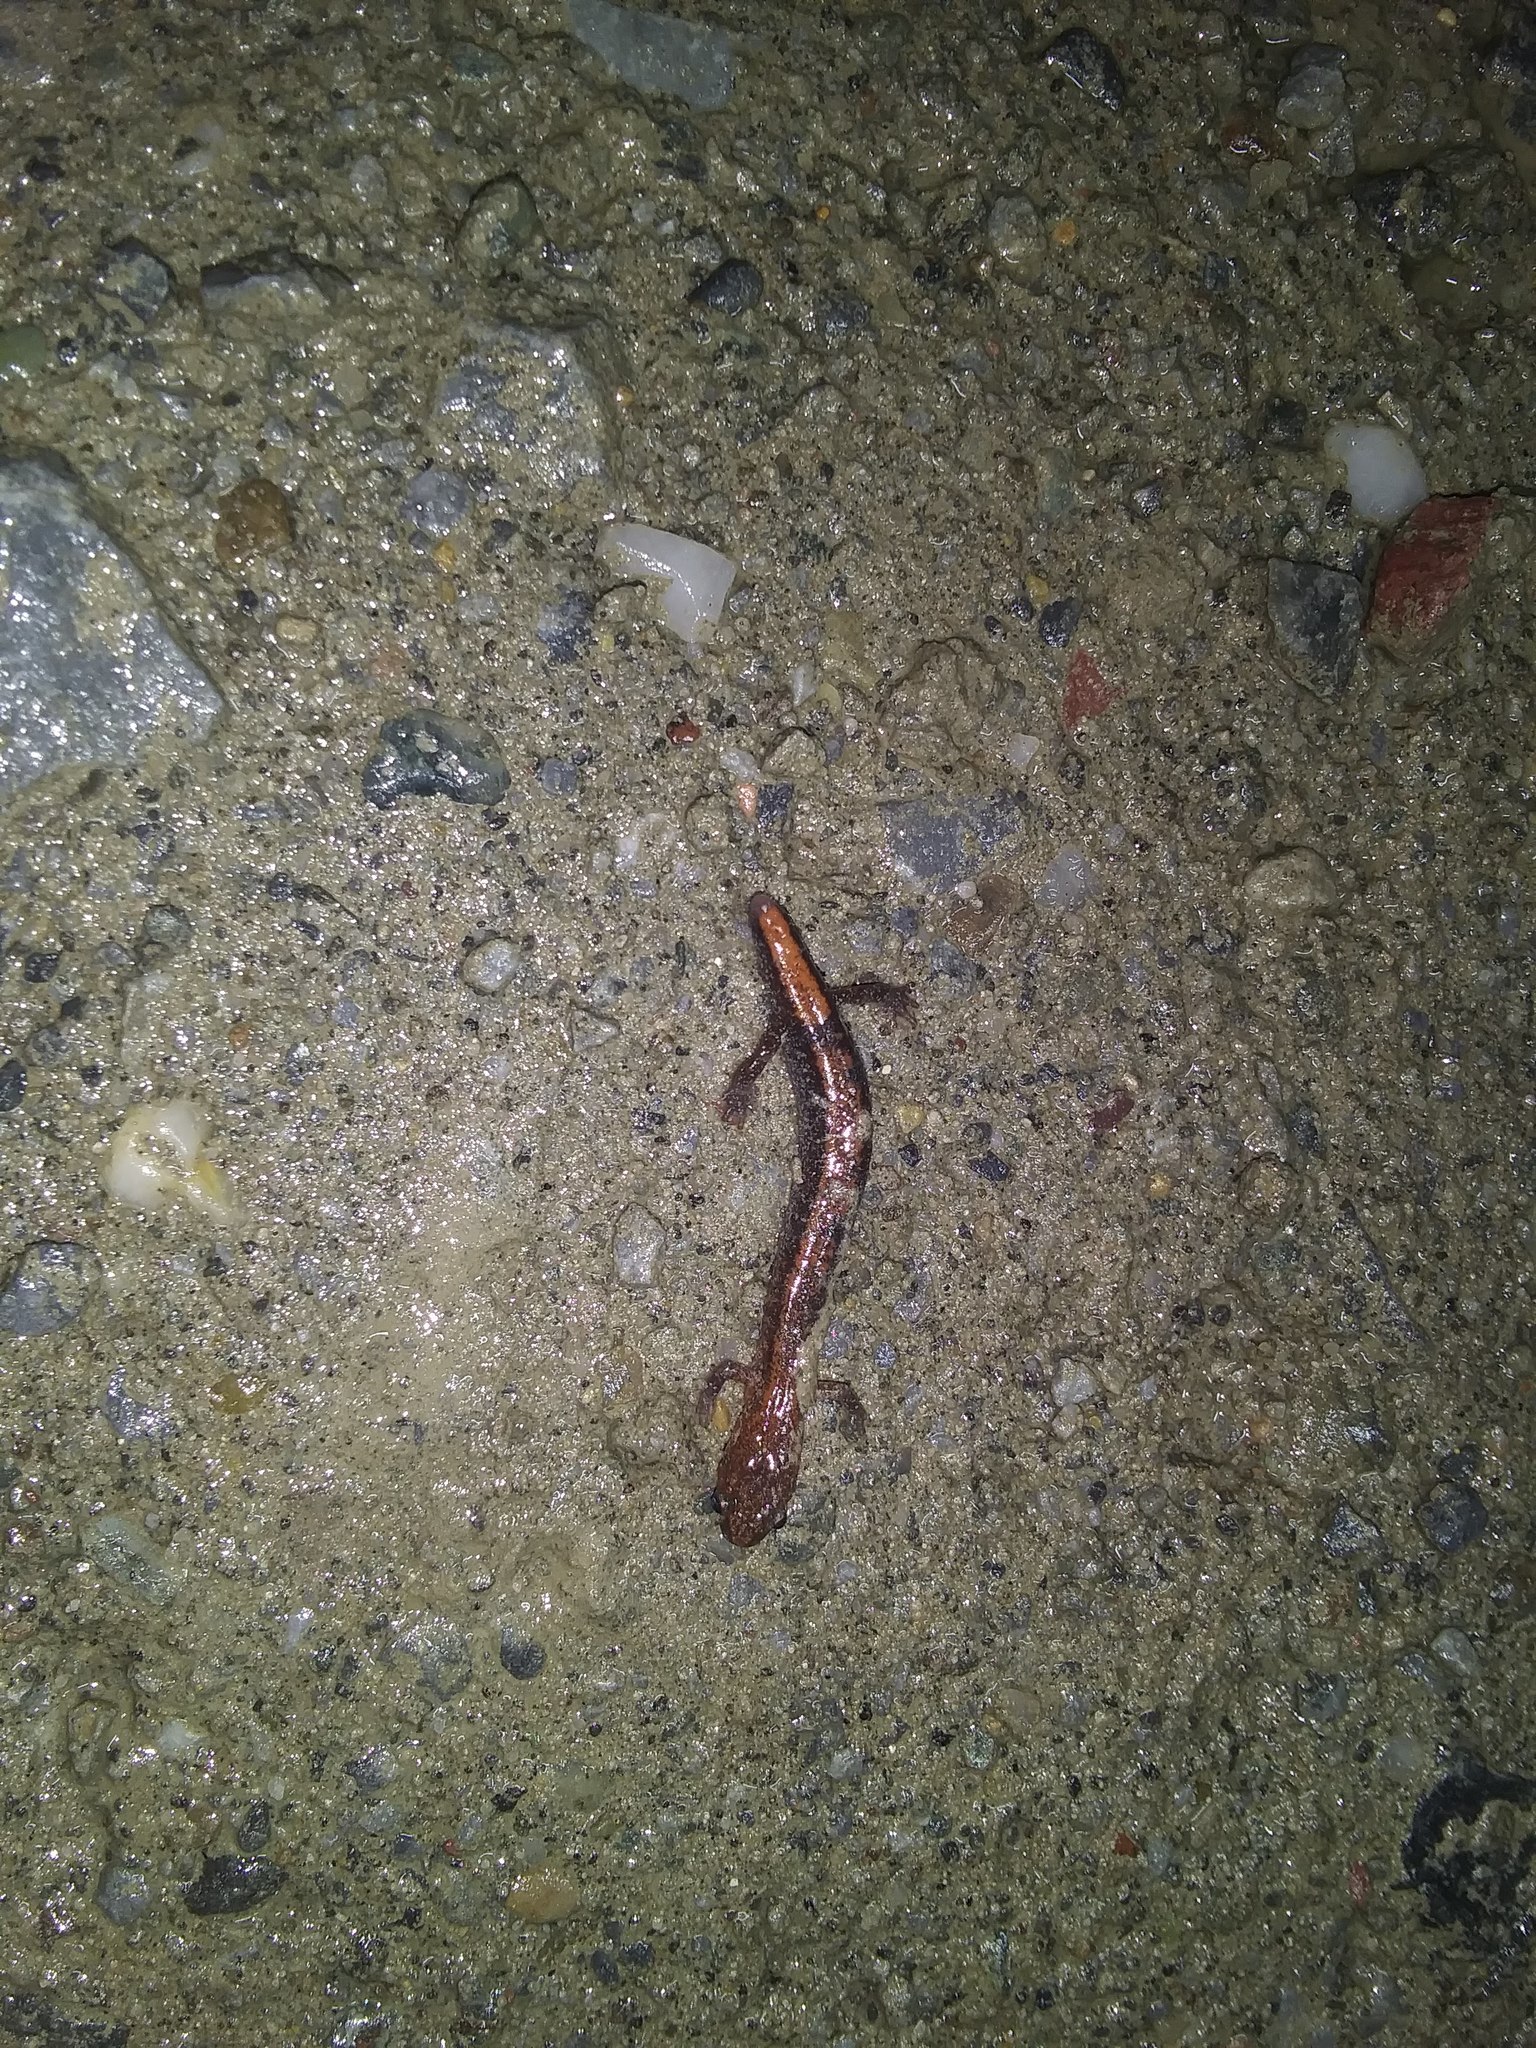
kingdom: Animalia
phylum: Chordata
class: Amphibia
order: Caudata
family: Plethodontidae
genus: Plethodon
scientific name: Plethodon cinereus
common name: Redback salamander
